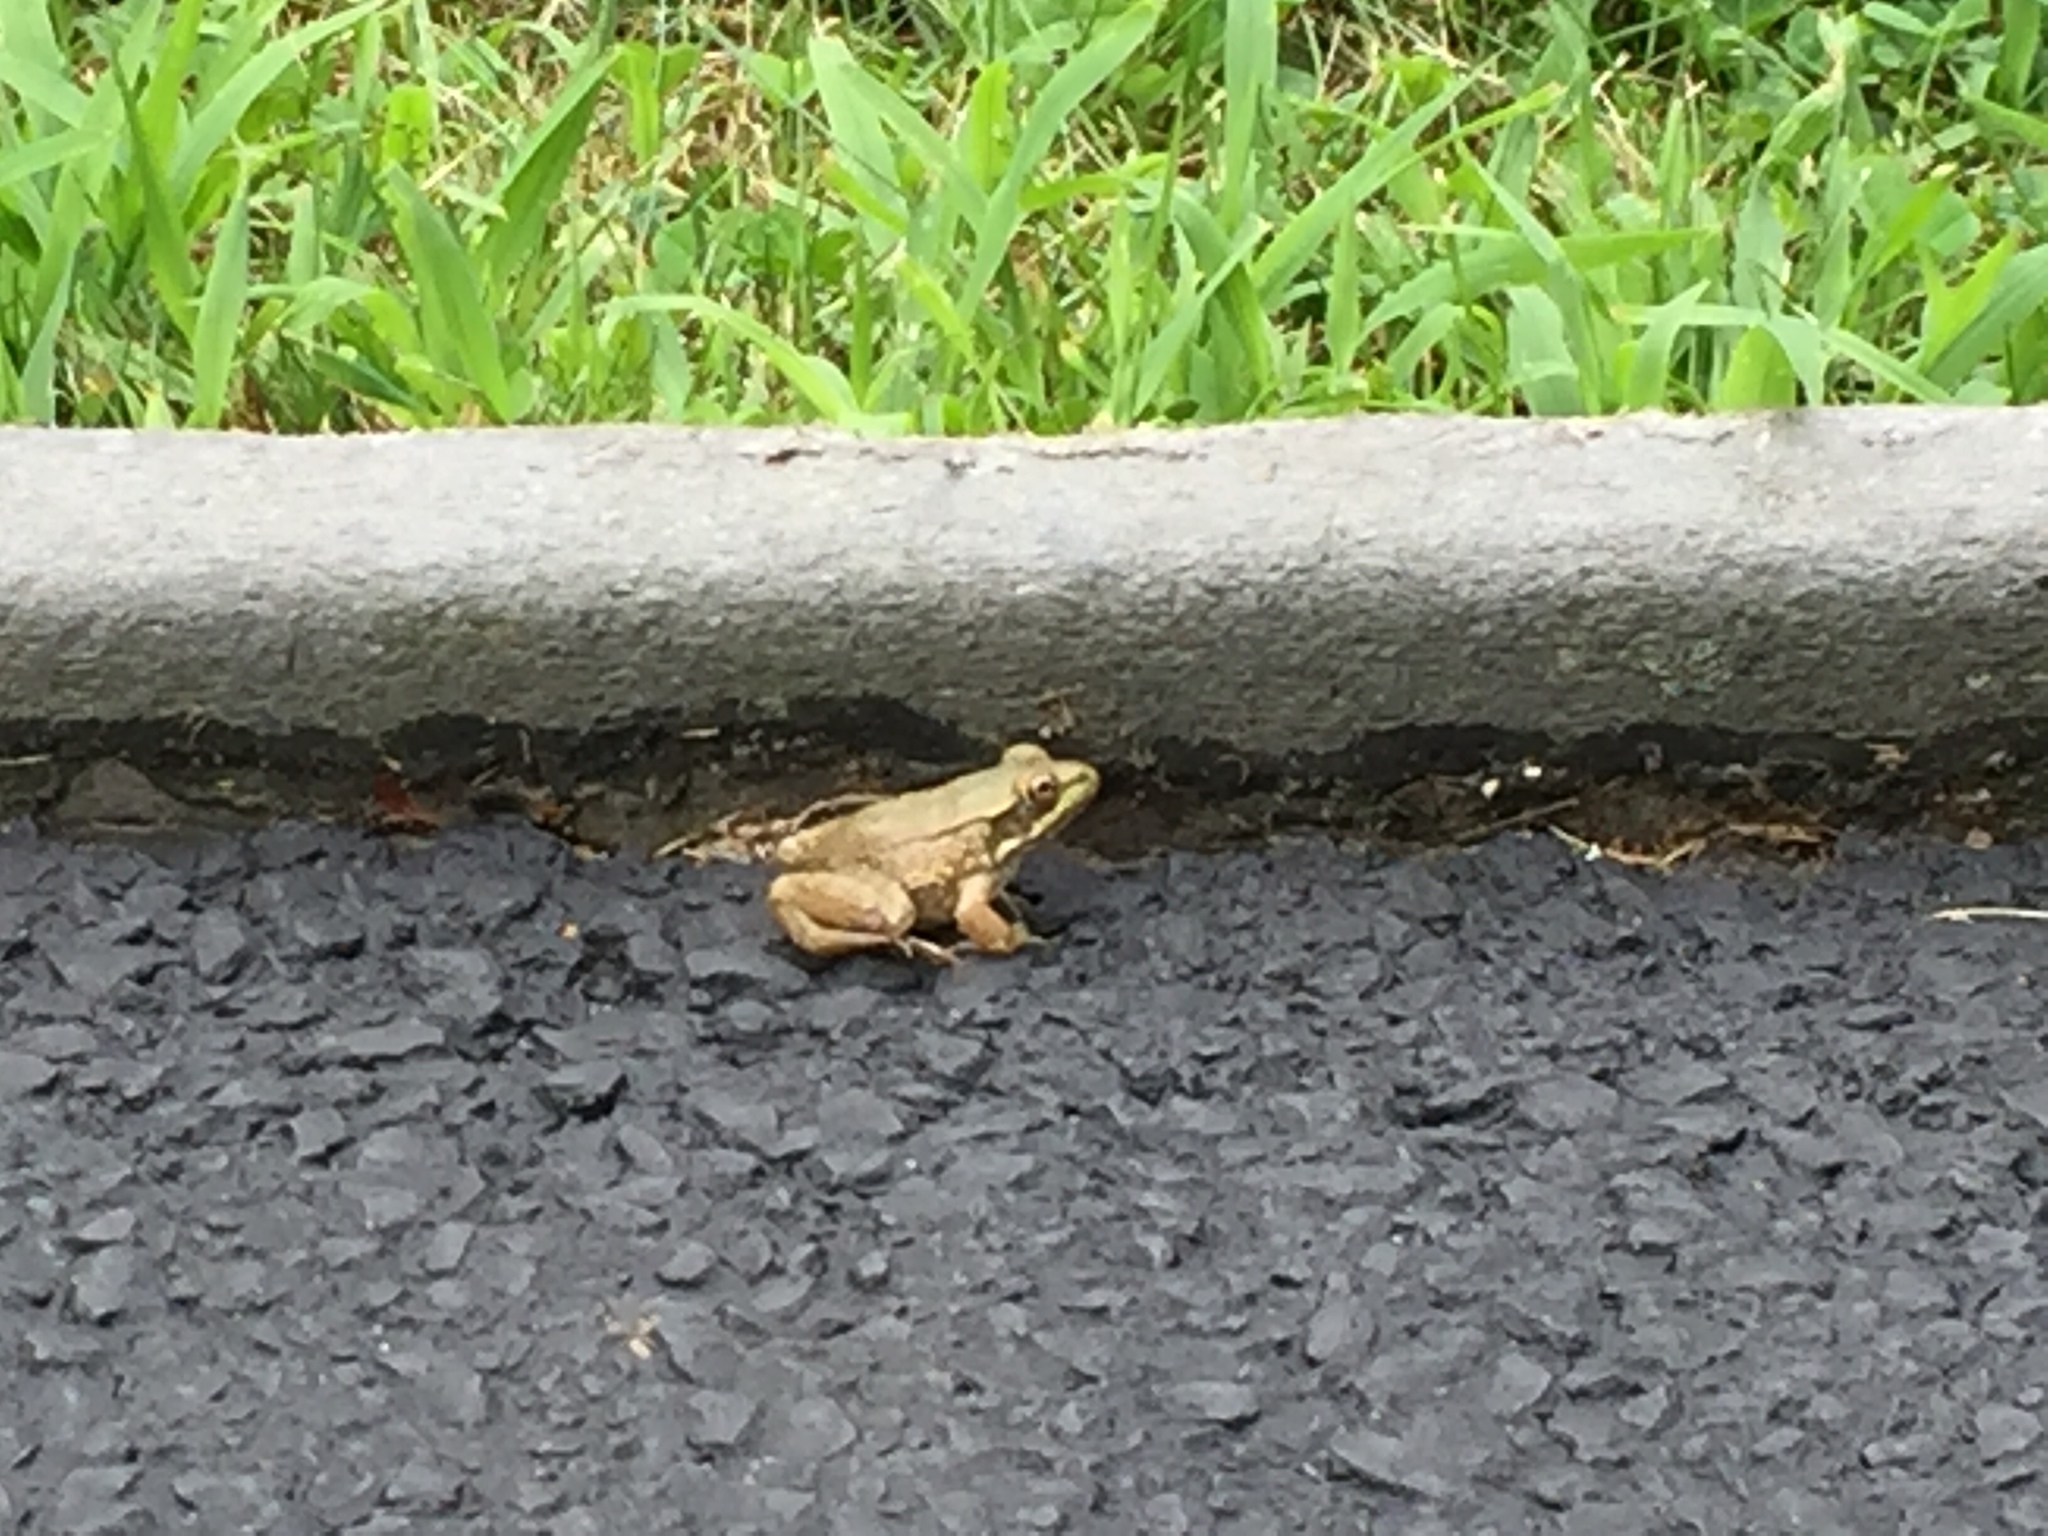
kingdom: Animalia
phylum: Chordata
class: Amphibia
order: Anura
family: Ranidae
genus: Lithobates
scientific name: Lithobates clamitans
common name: Green frog
